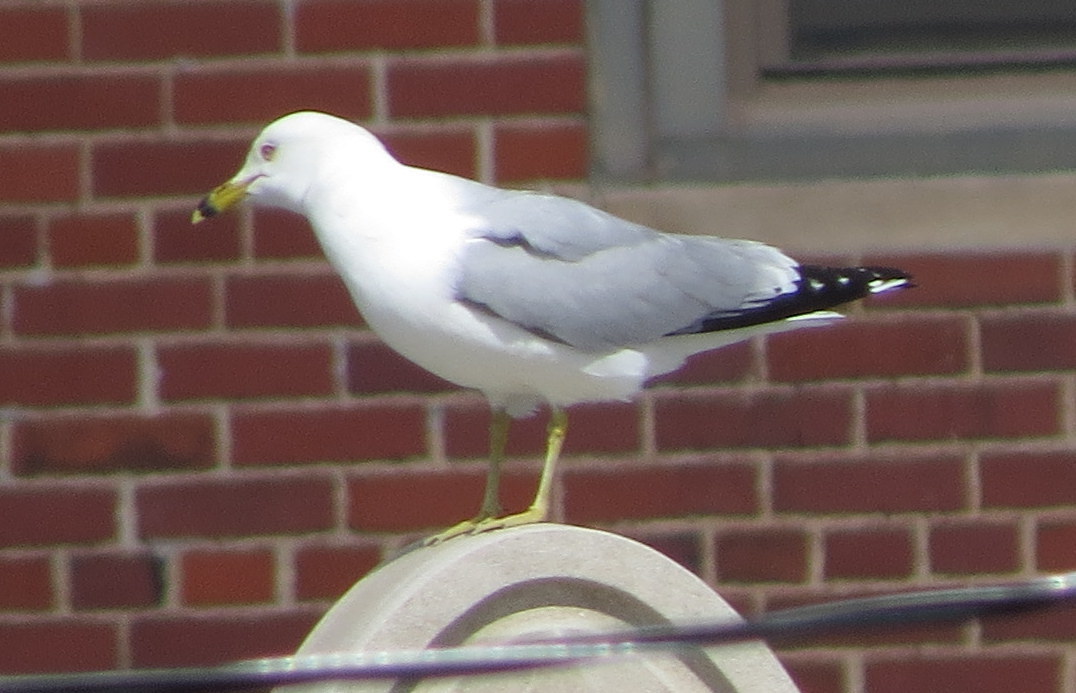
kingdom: Animalia
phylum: Chordata
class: Aves
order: Charadriiformes
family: Laridae
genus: Larus
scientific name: Larus delawarensis
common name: Ring-billed gull
